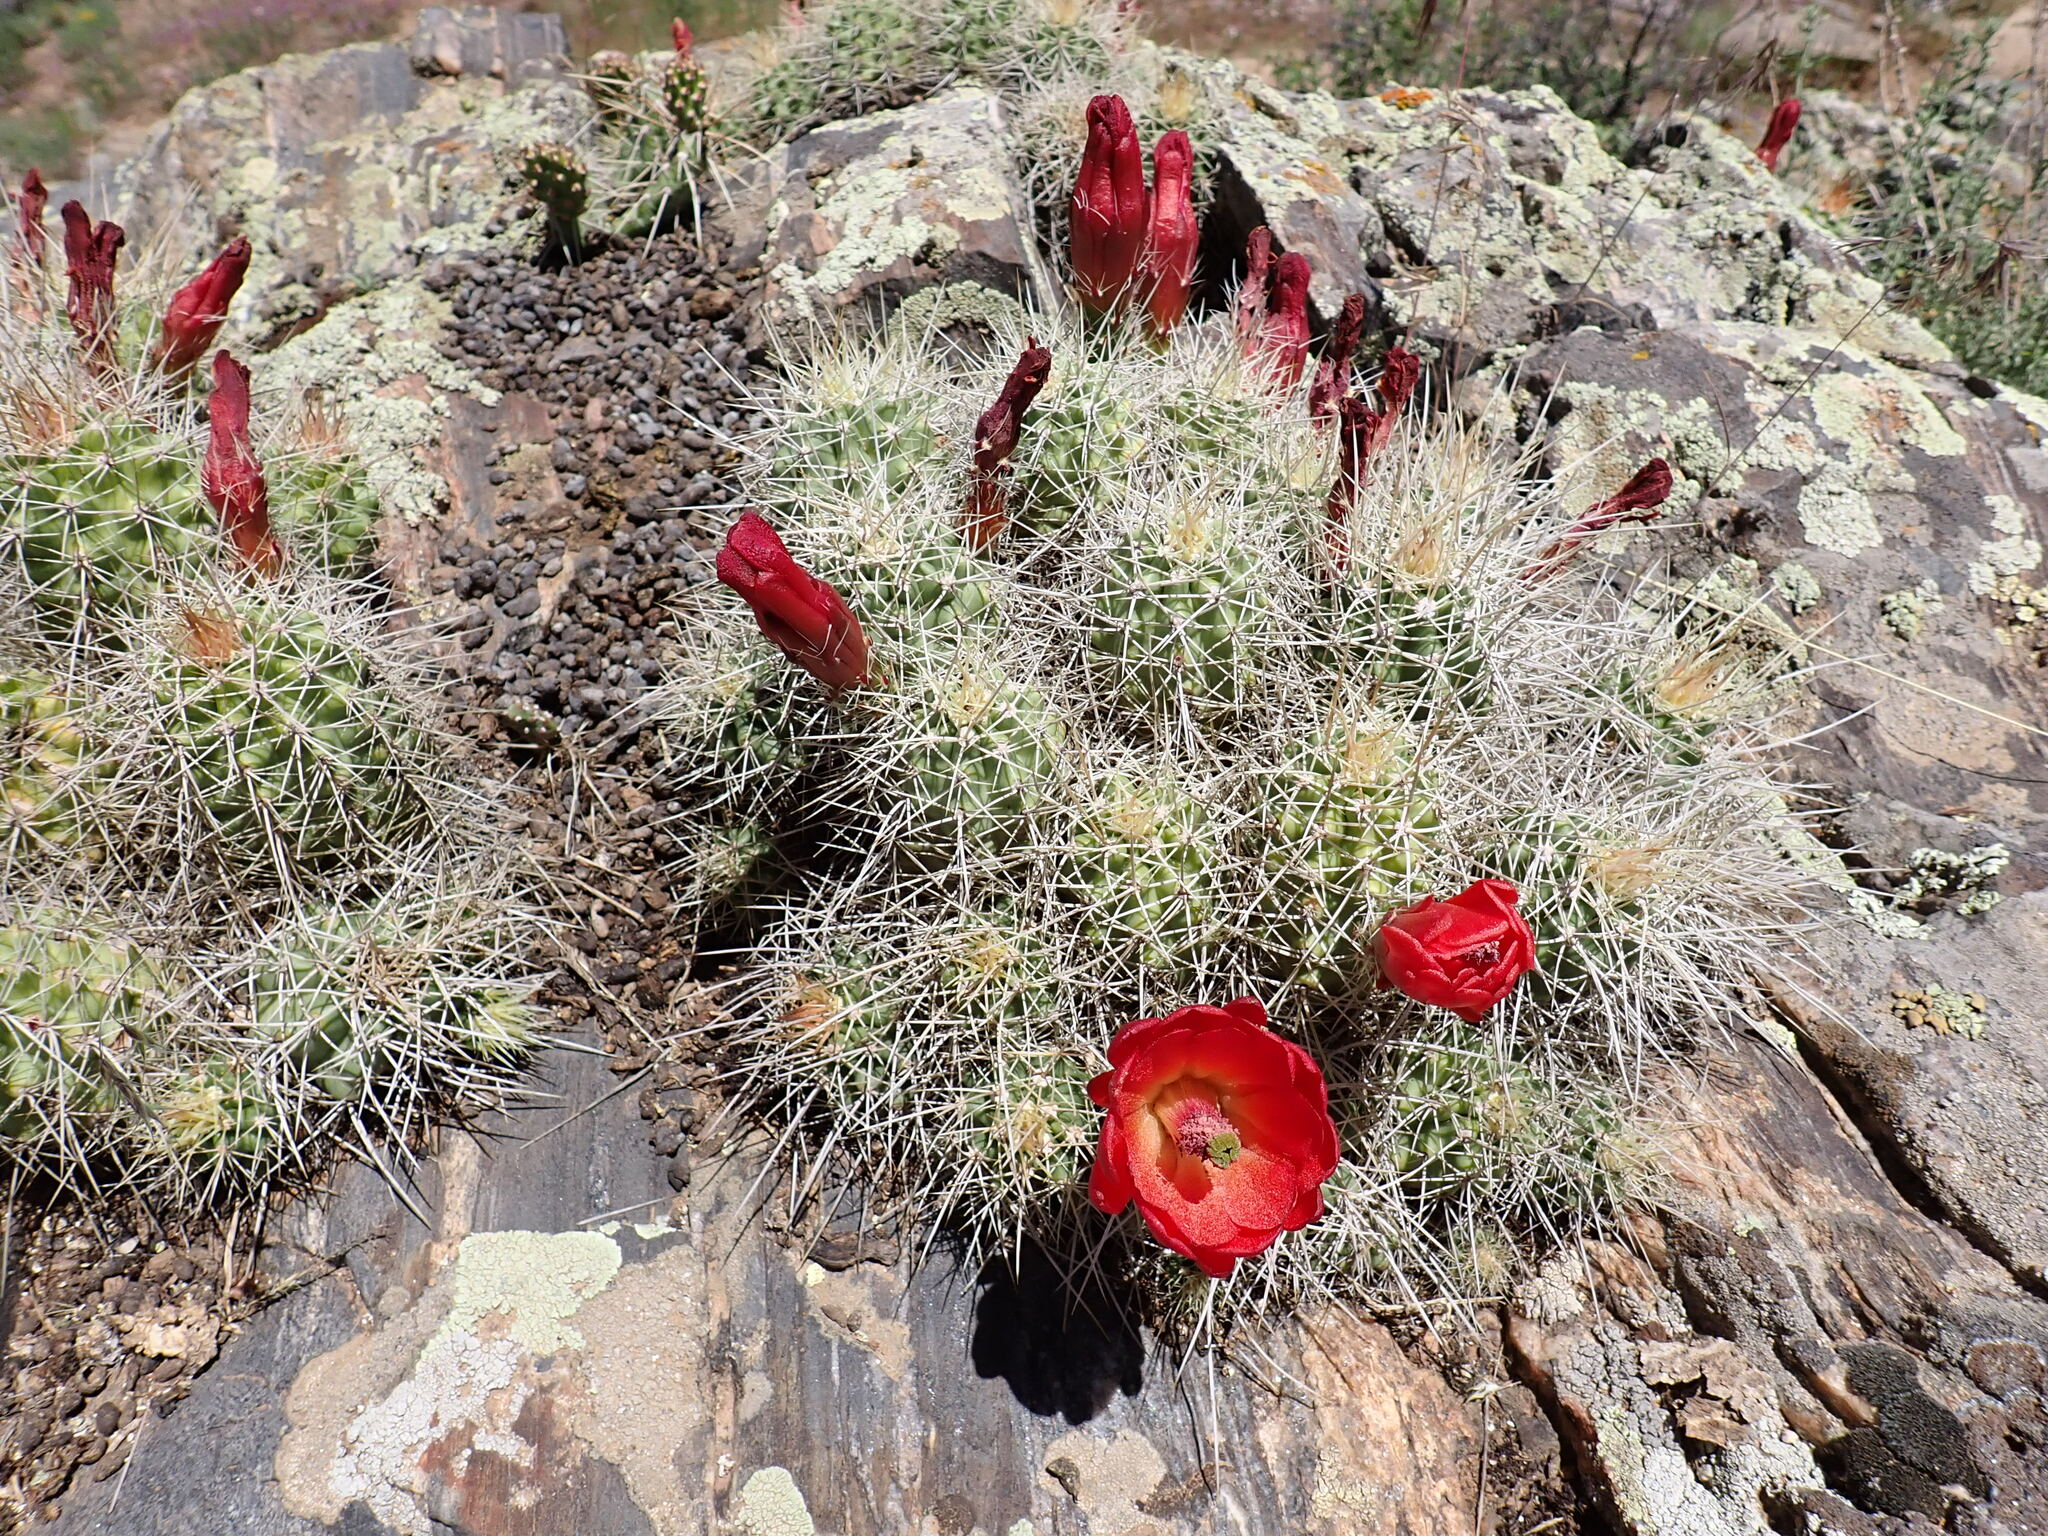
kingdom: Plantae
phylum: Tracheophyta
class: Magnoliopsida
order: Caryophyllales
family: Cactaceae
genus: Echinocereus
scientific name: Echinocereus triglochidiatus
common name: Claretcup hedgehog
